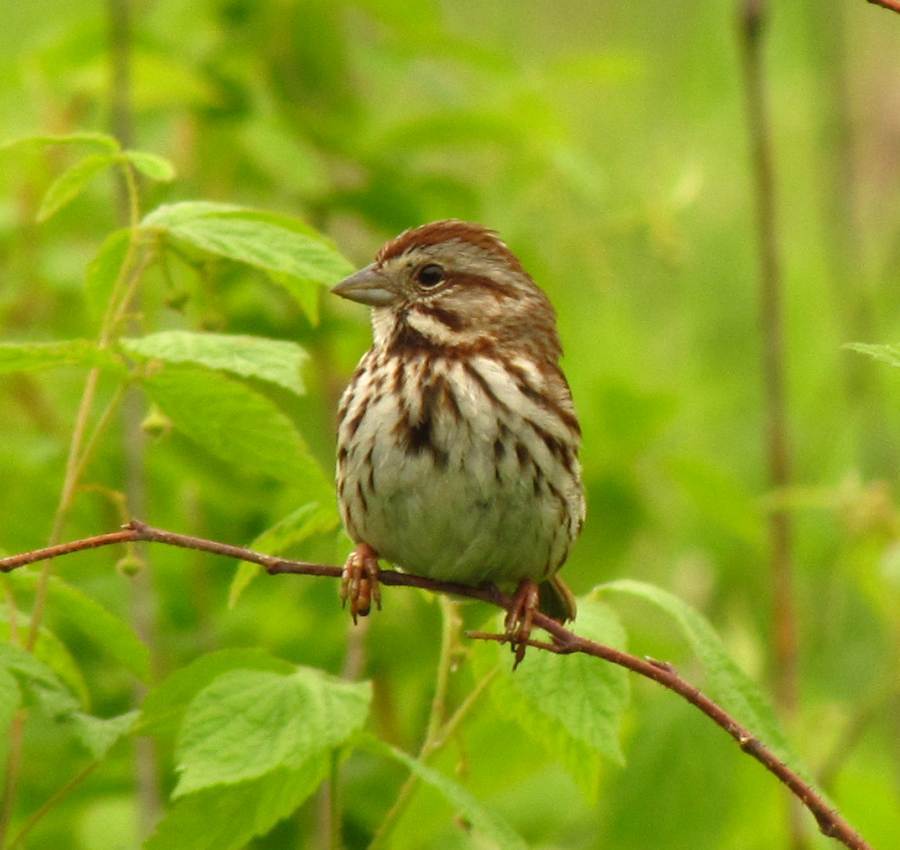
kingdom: Animalia
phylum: Chordata
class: Aves
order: Passeriformes
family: Passerellidae
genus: Melospiza
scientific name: Melospiza melodia
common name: Song sparrow
